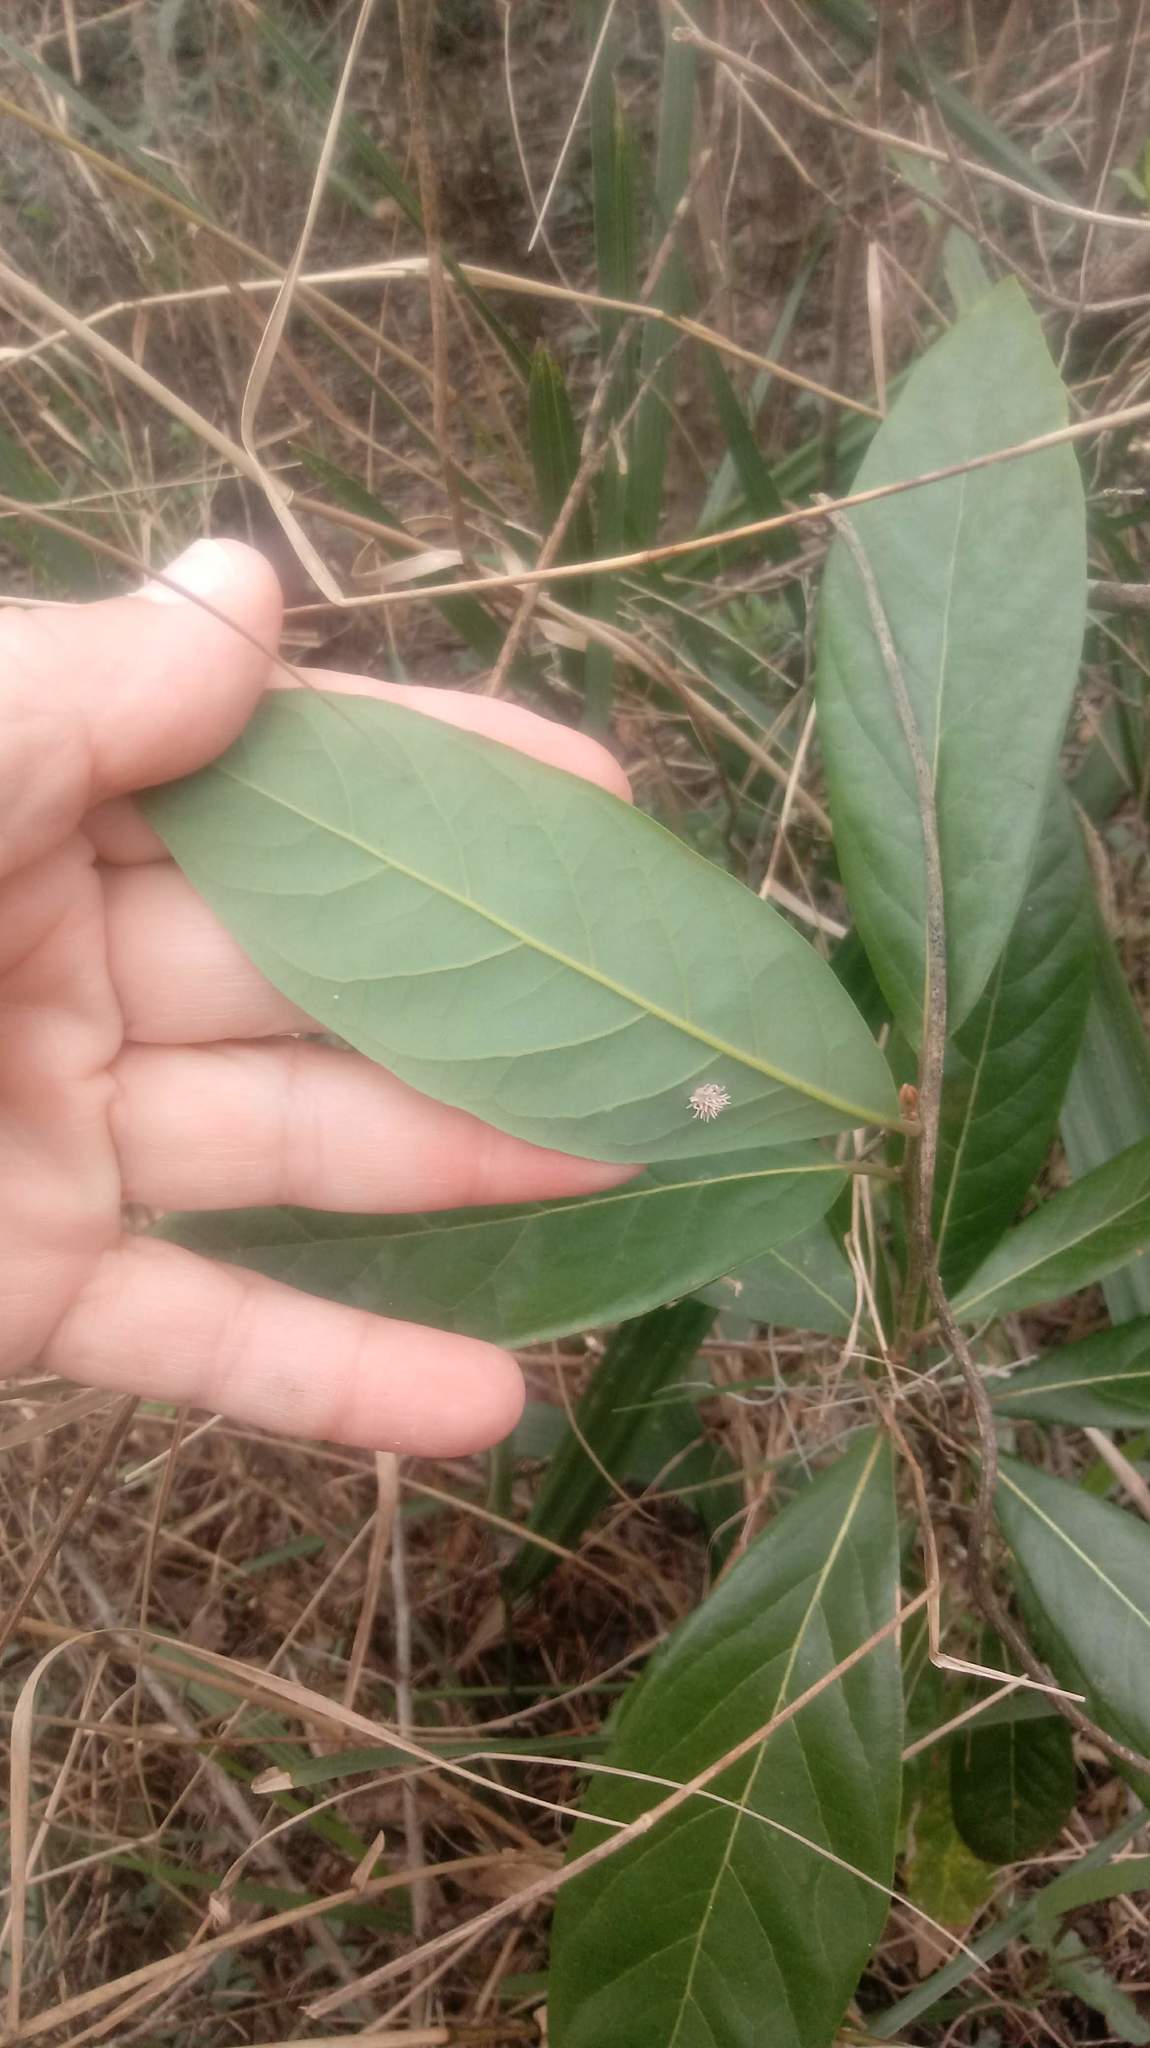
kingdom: Plantae
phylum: Tracheophyta
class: Magnoliopsida
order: Laurales
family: Lauraceae
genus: Persea
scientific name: Persea palustris
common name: Swampbay
